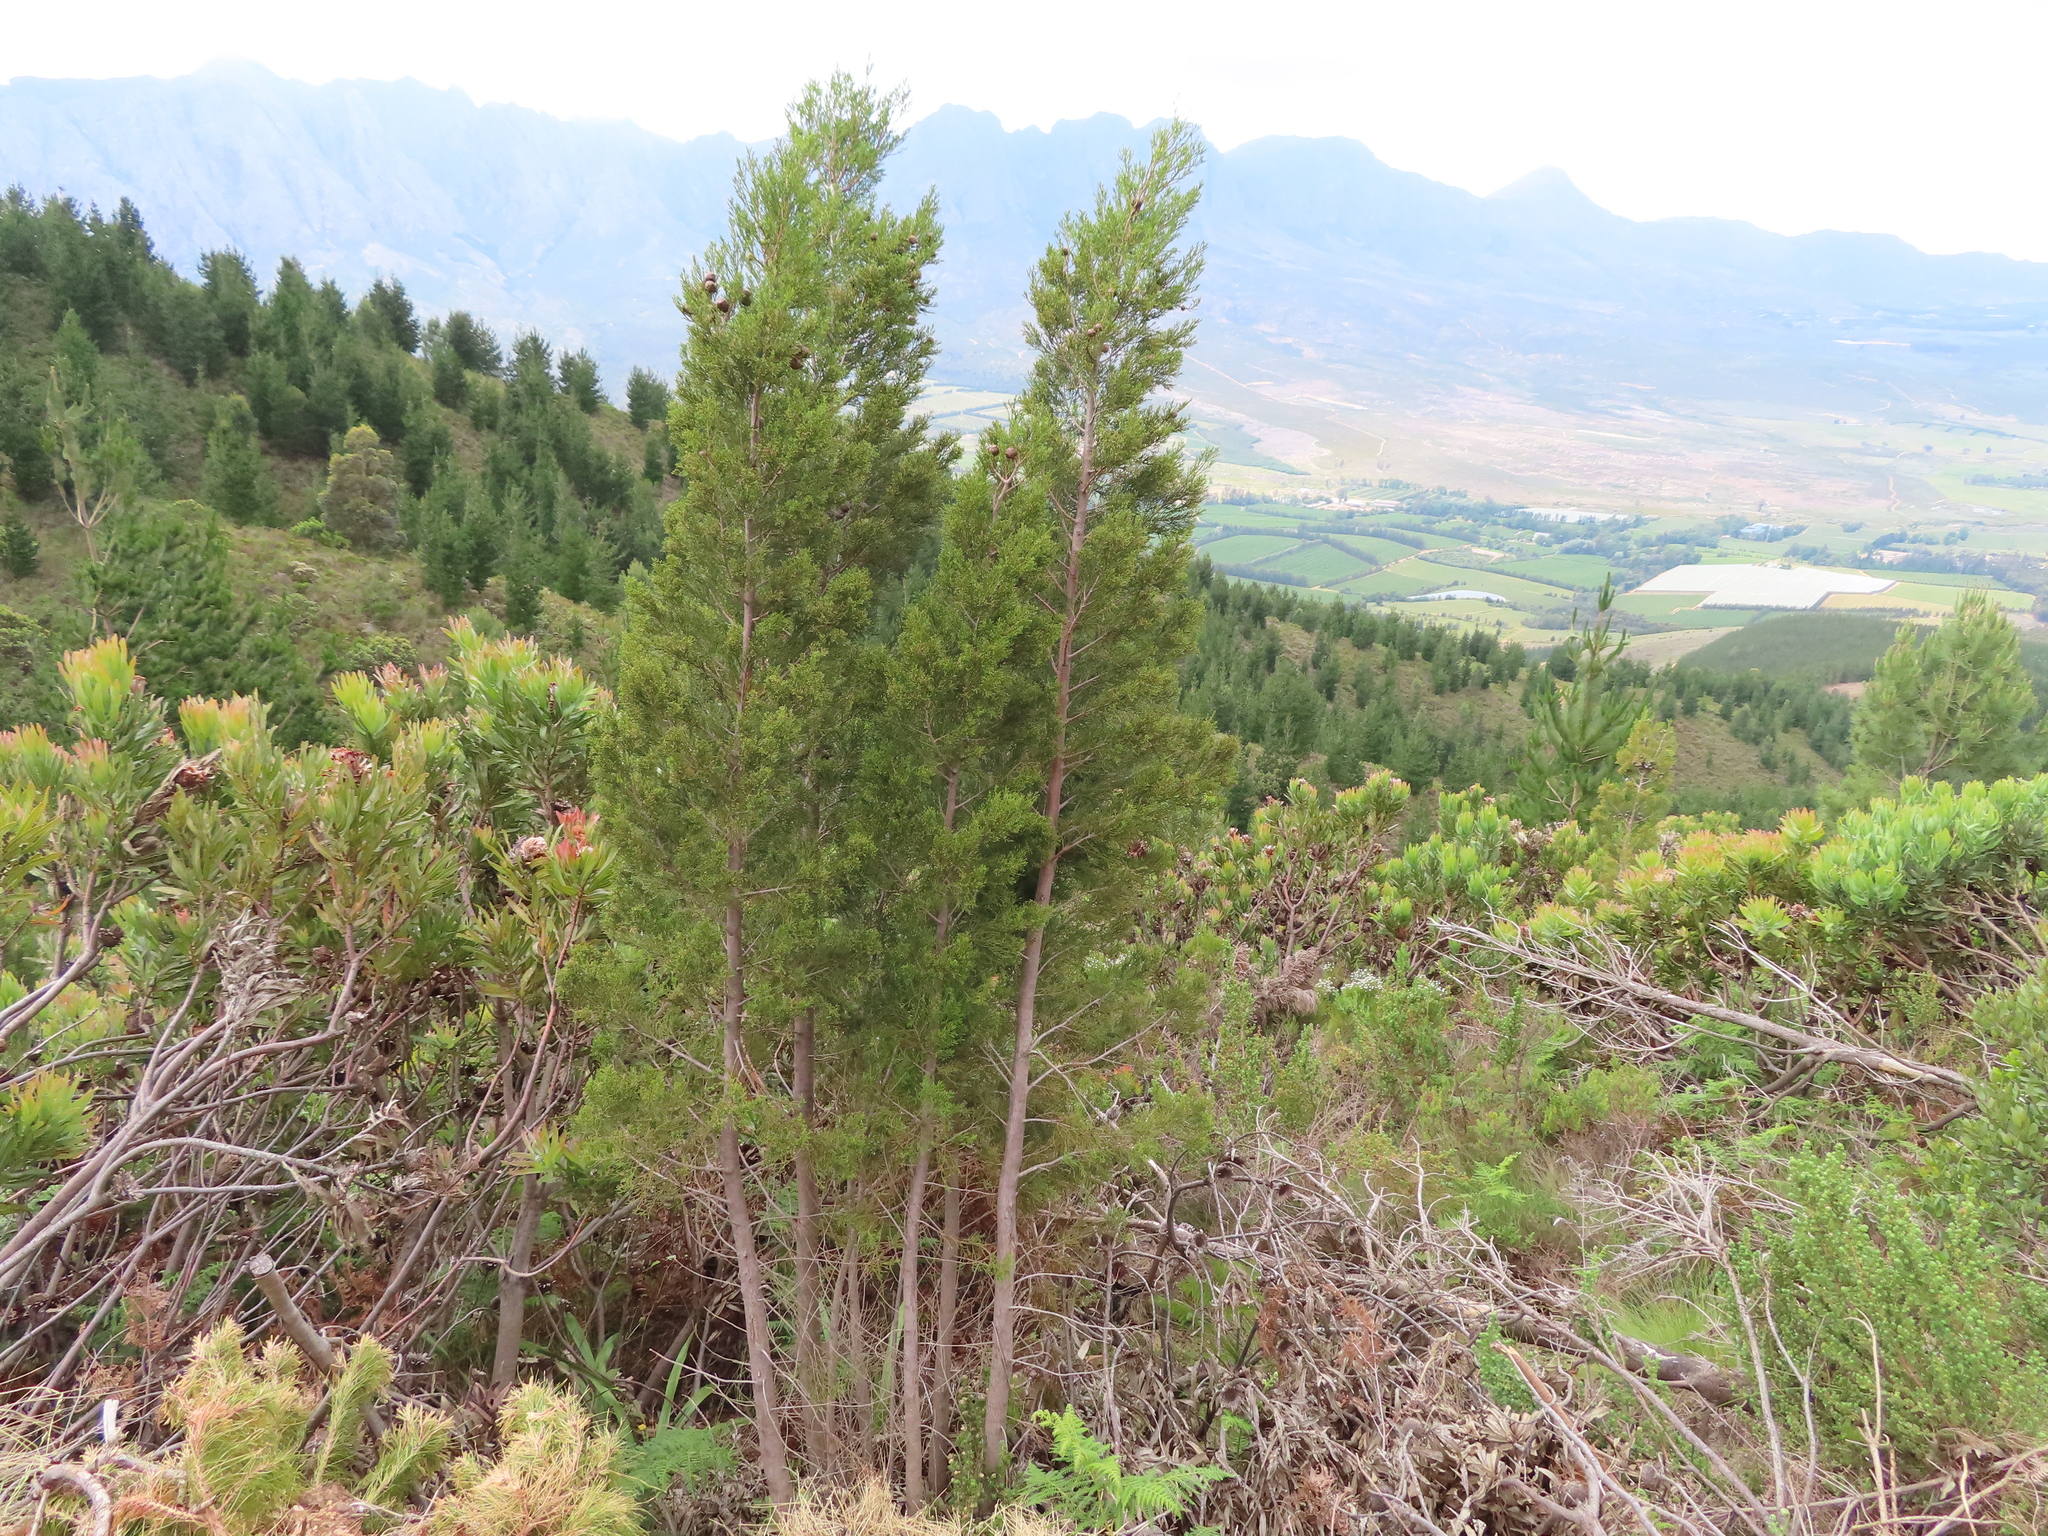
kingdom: Plantae
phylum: Tracheophyta
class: Pinopsida
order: Pinales
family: Cupressaceae
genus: Widdringtonia
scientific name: Widdringtonia nodiflora
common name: Cape cypress
